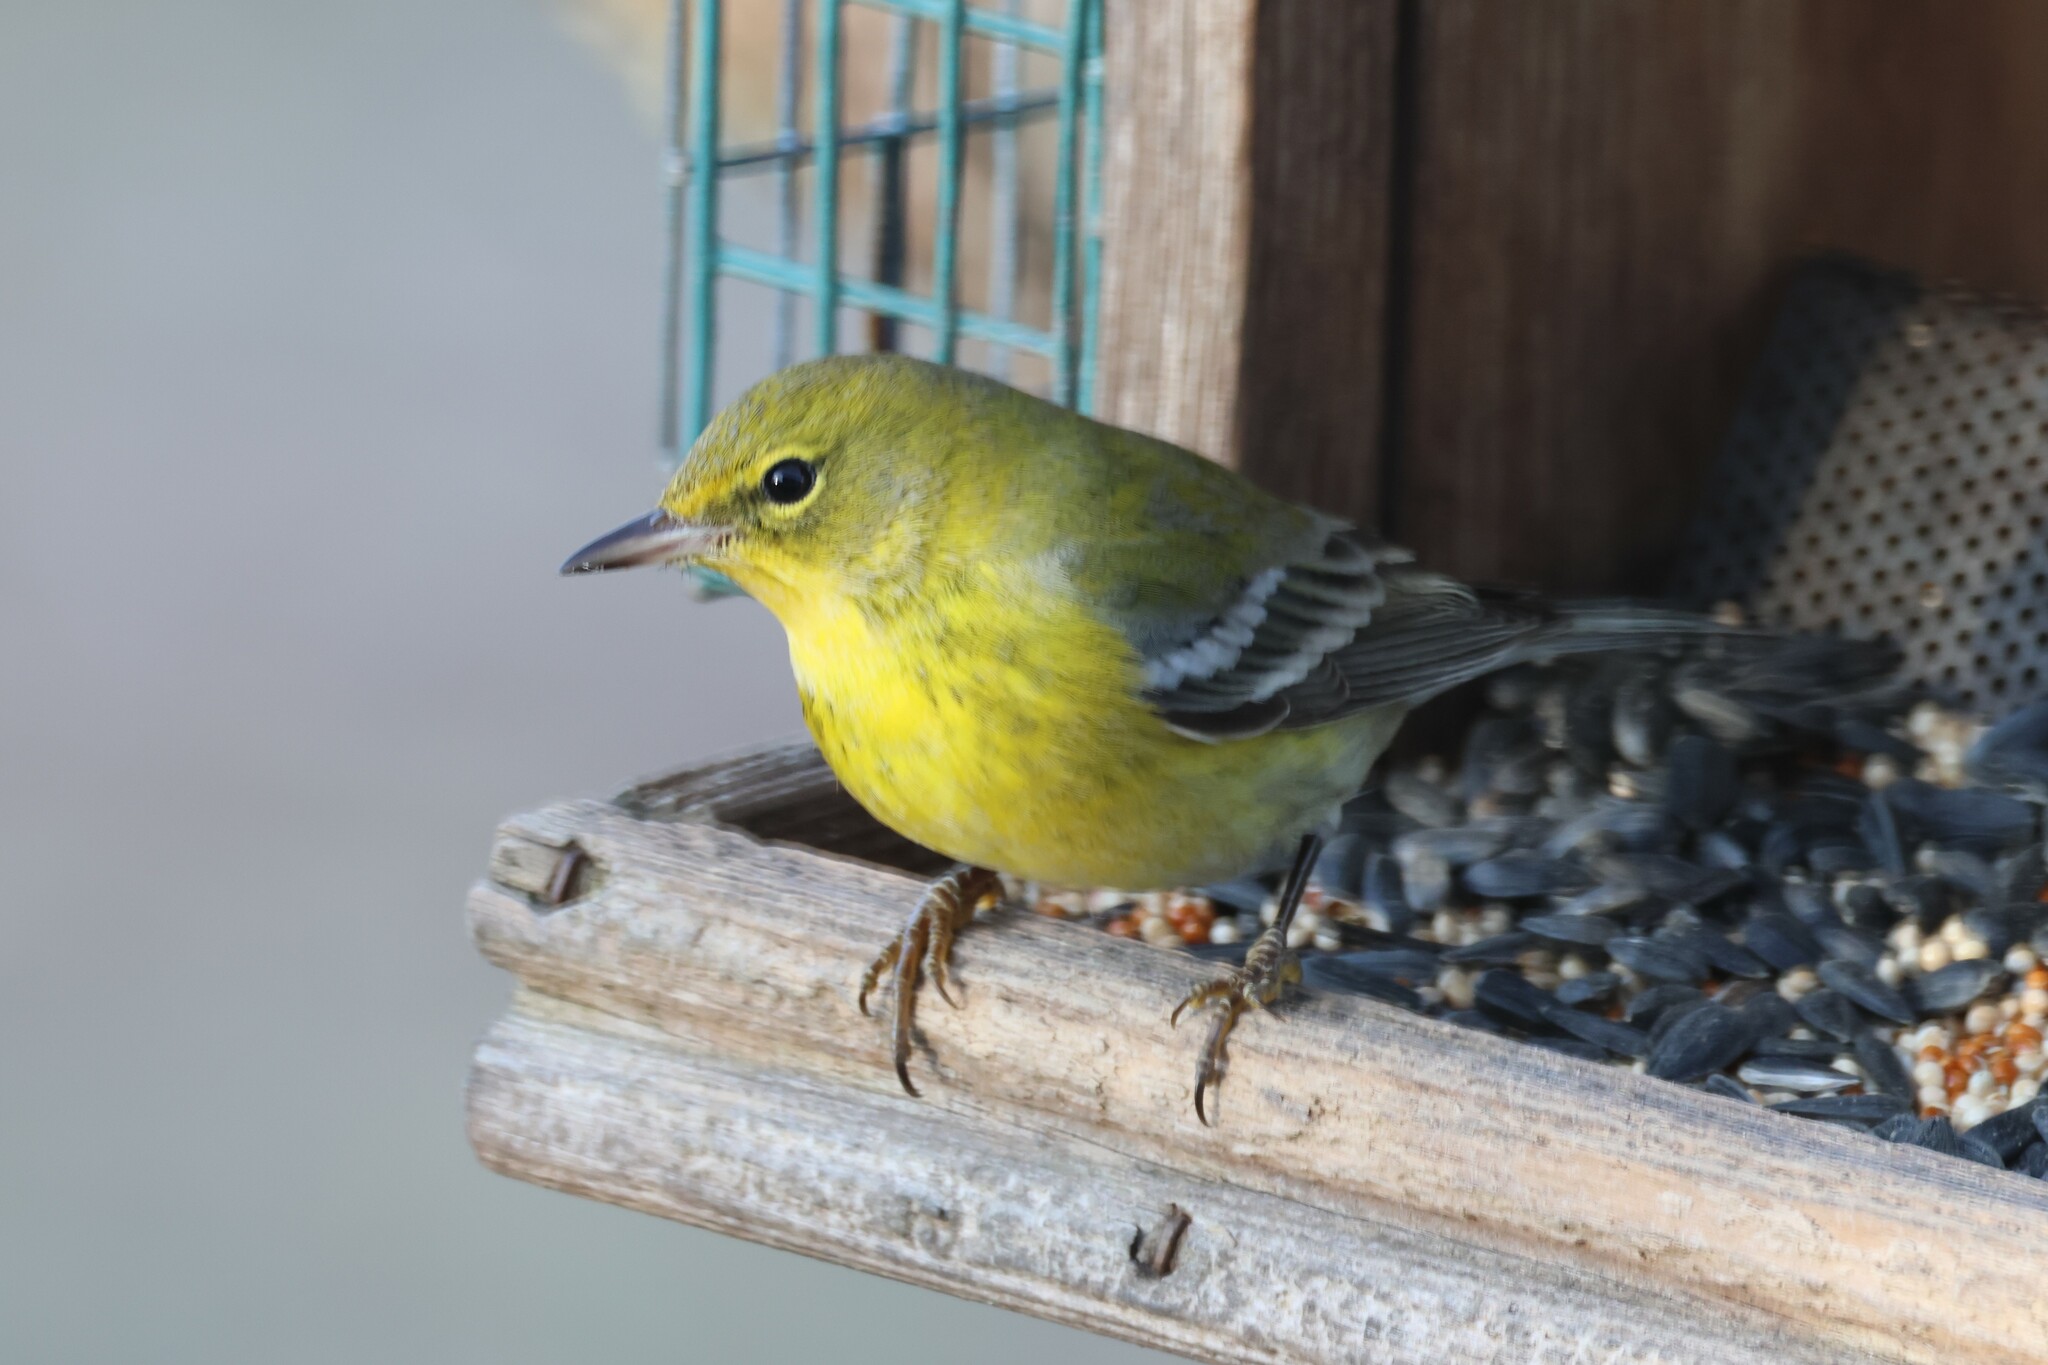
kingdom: Animalia
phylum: Chordata
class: Aves
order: Passeriformes
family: Parulidae
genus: Setophaga
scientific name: Setophaga pinus
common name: Pine warbler
